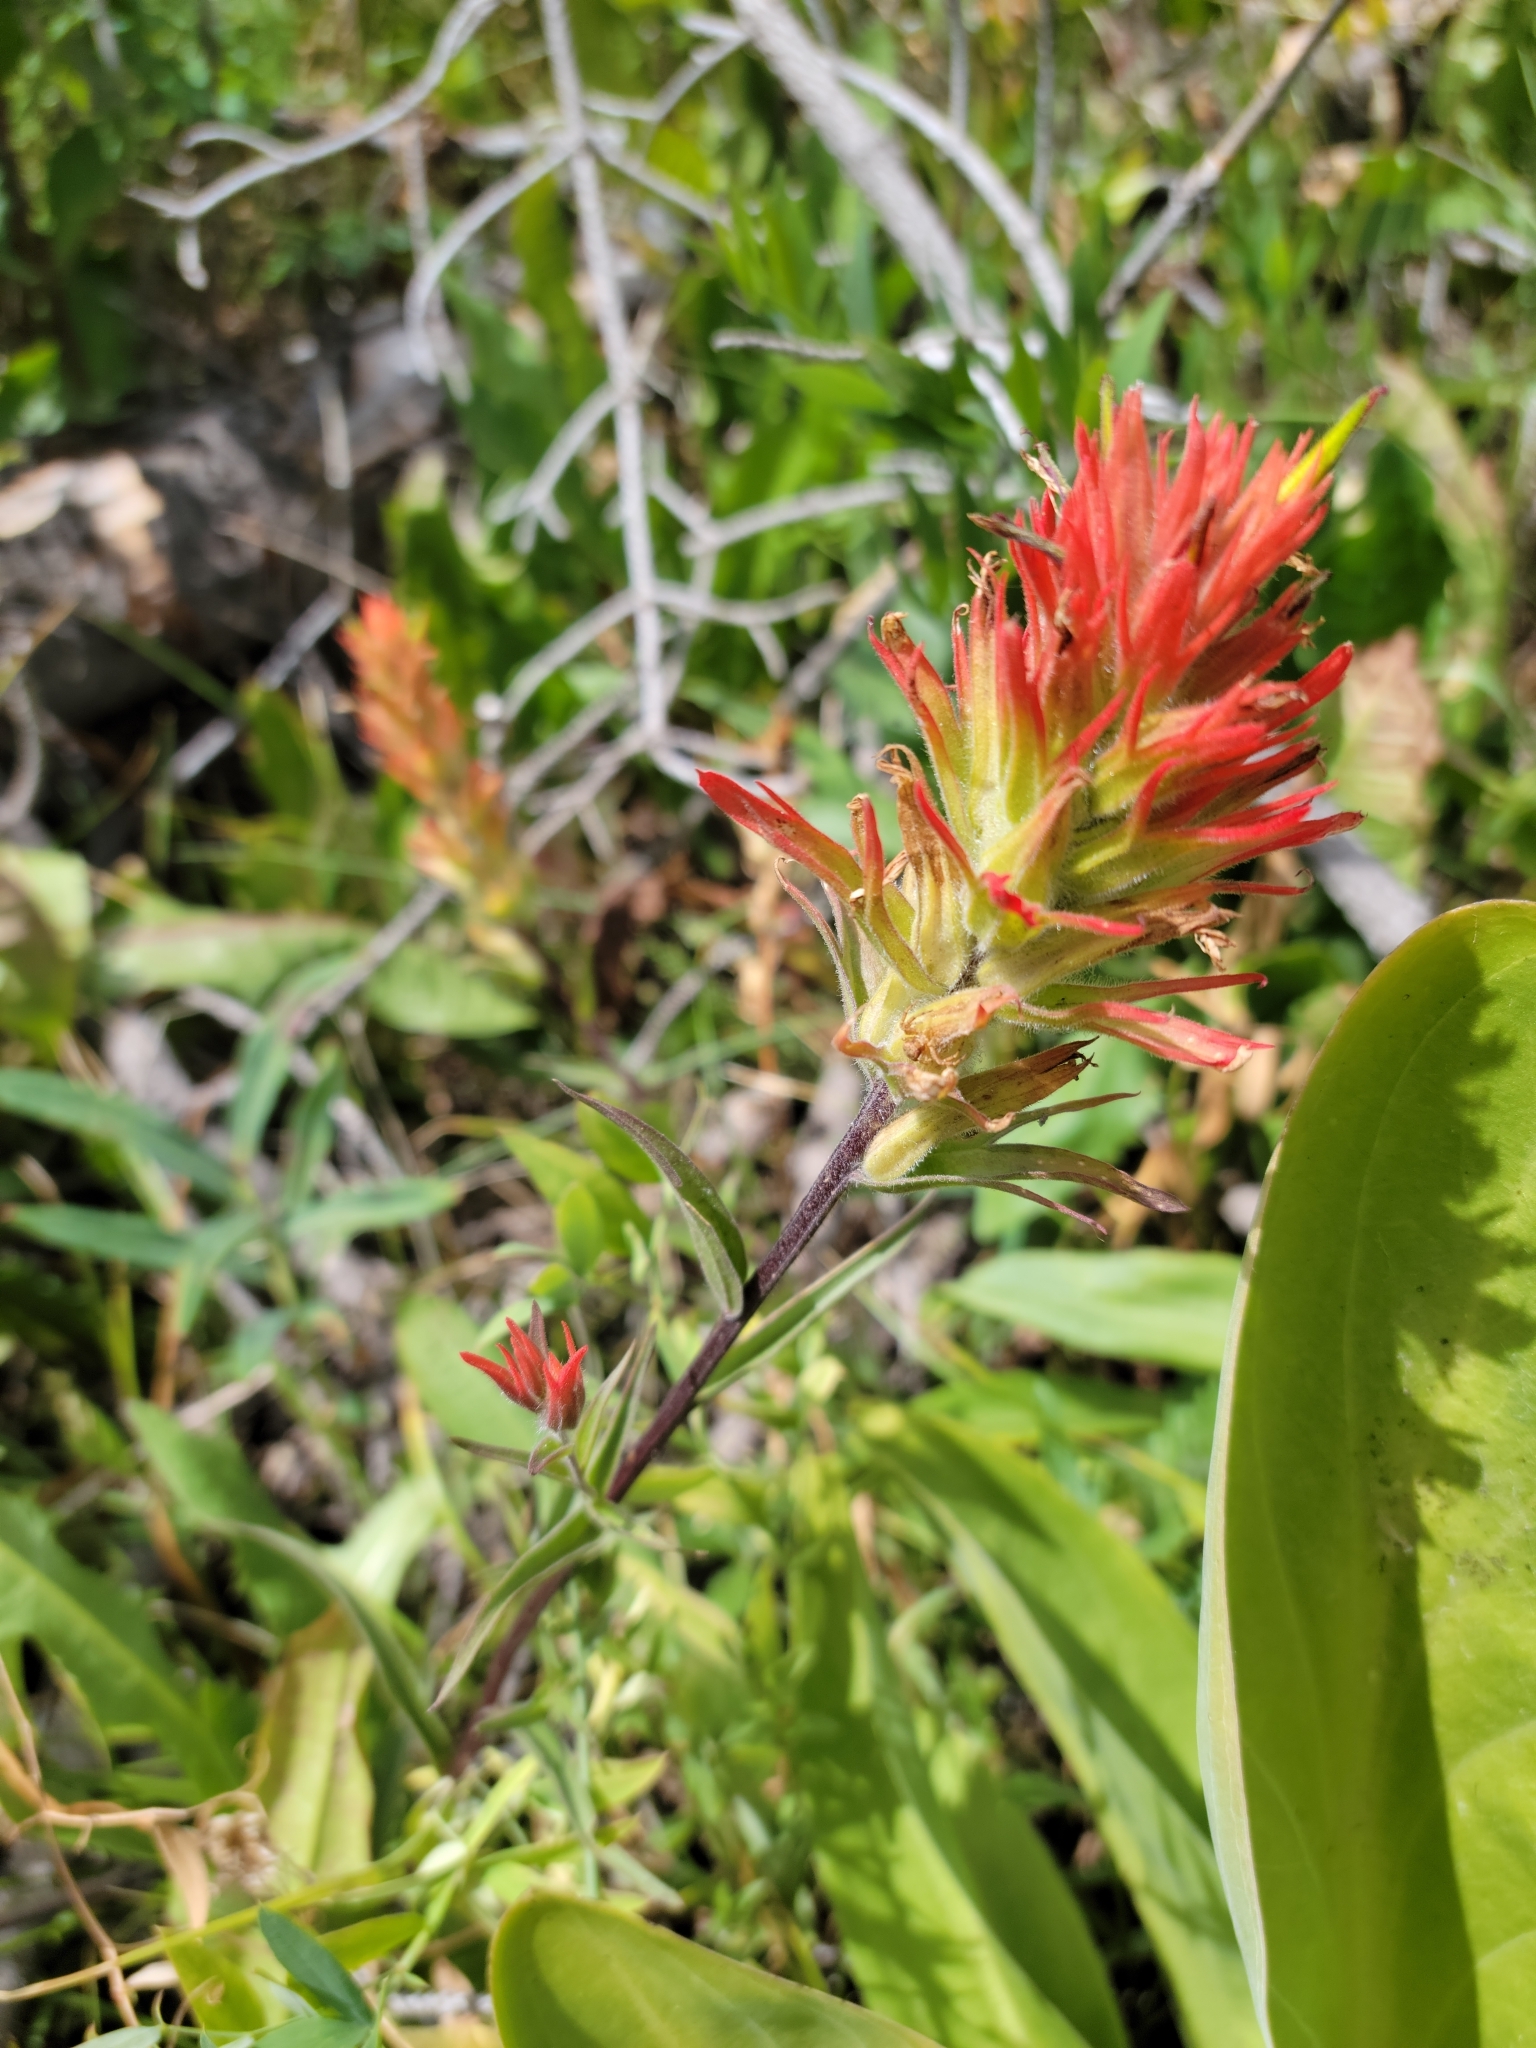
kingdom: Plantae
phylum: Tracheophyta
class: Magnoliopsida
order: Lamiales
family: Orobanchaceae
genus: Castilleja
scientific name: Castilleja miniata
